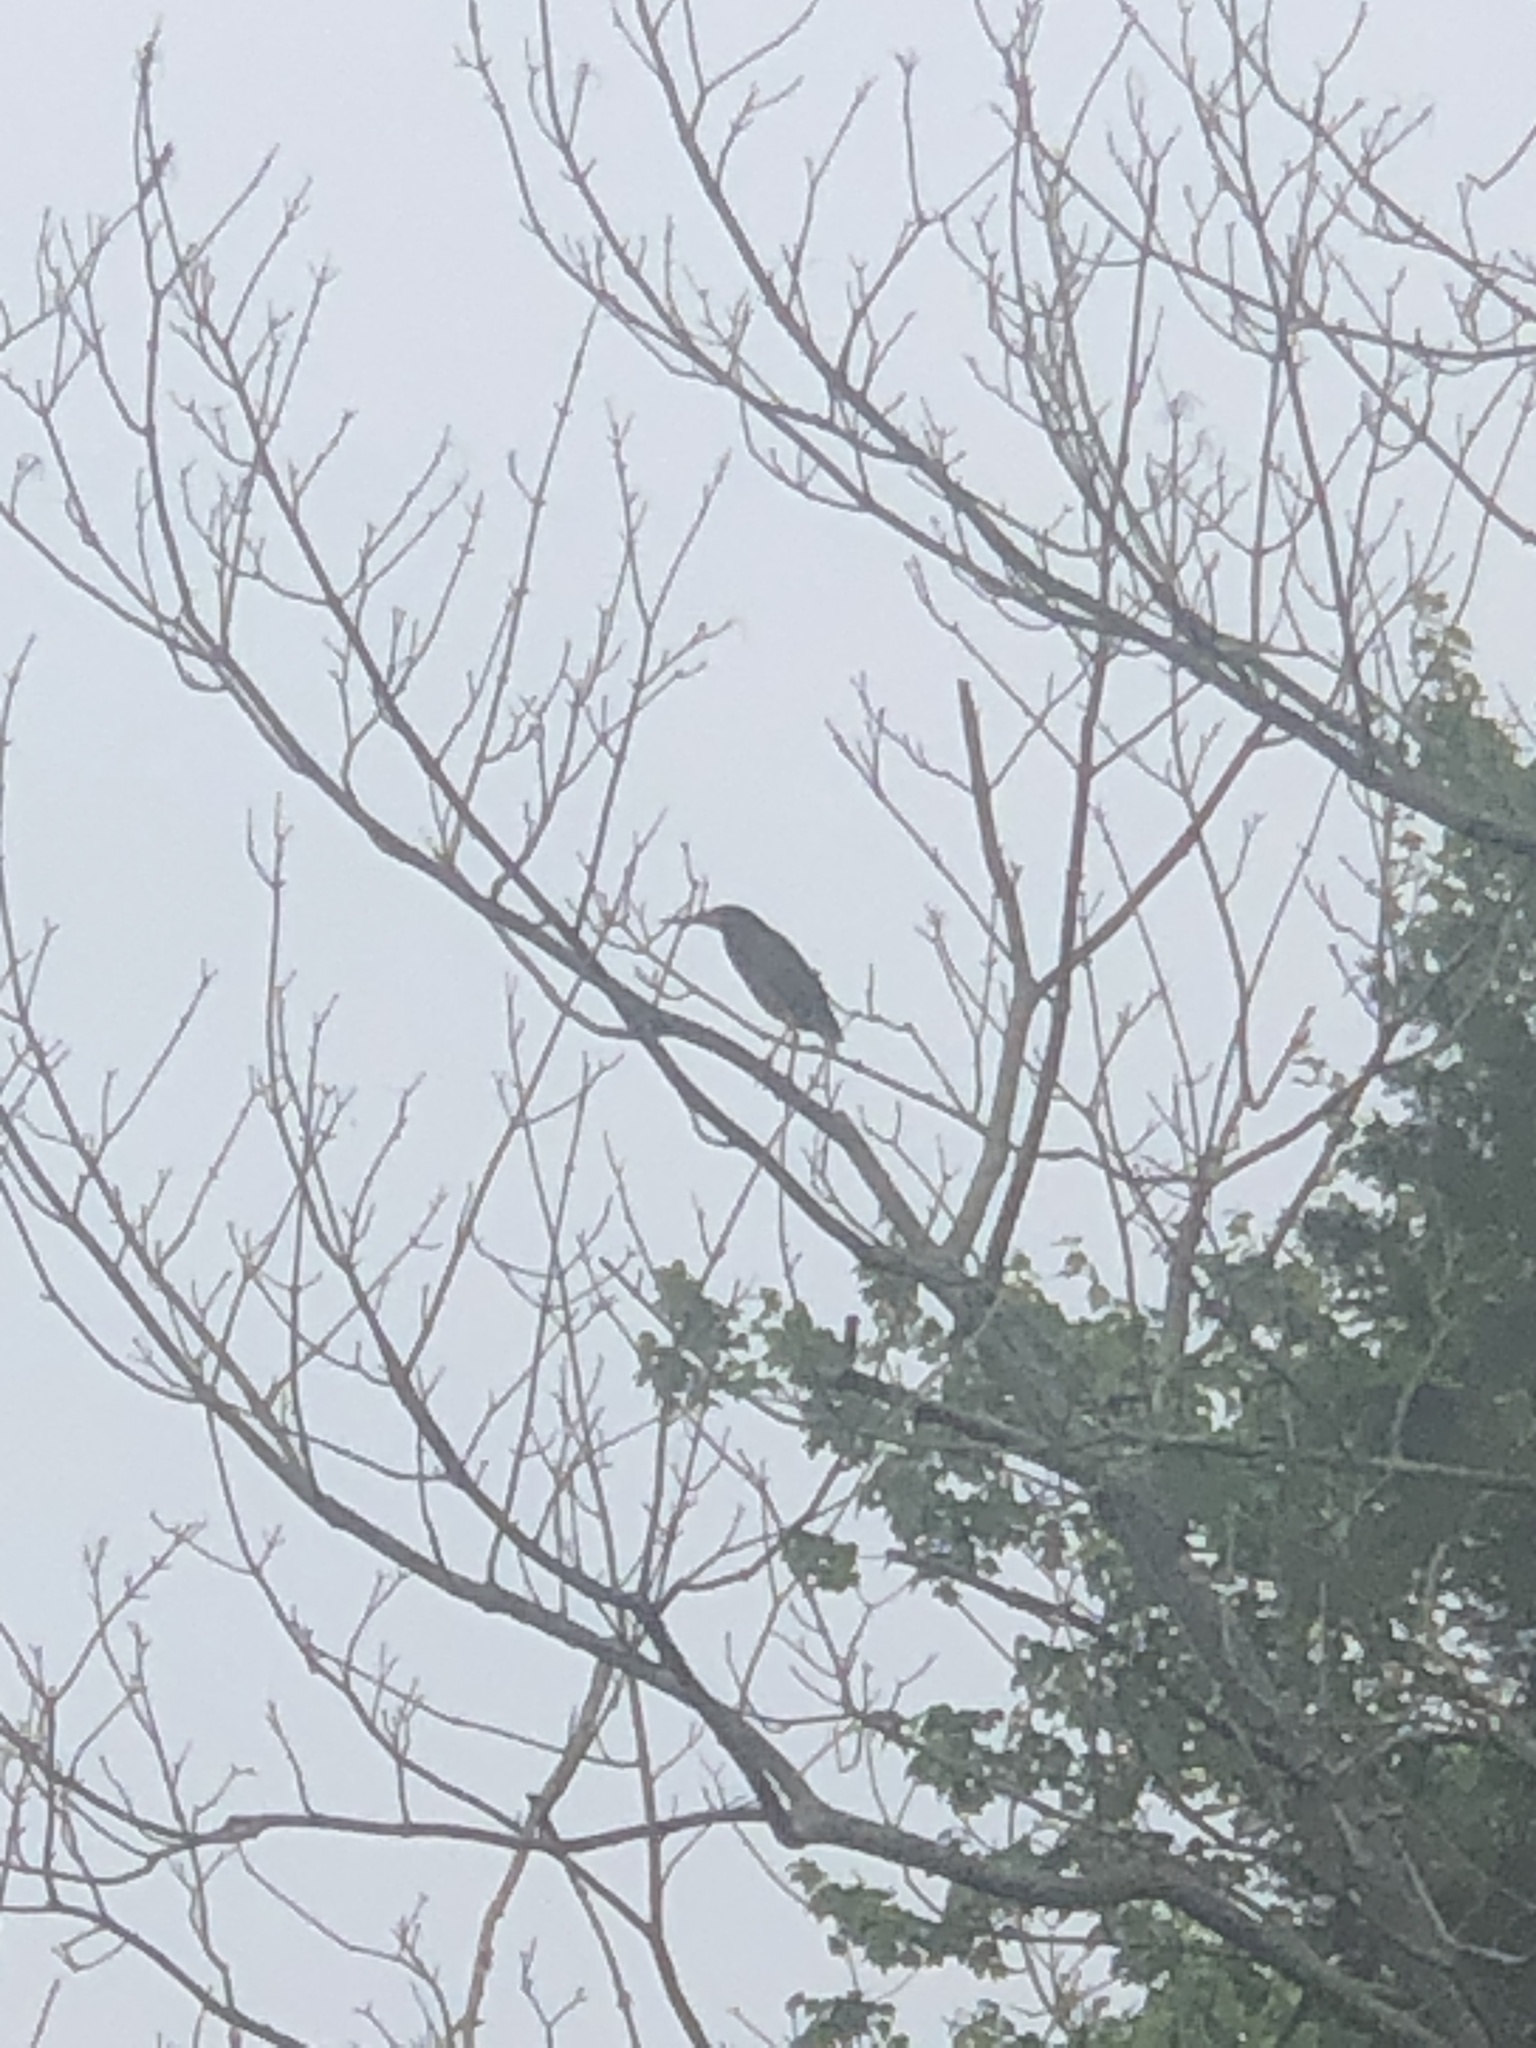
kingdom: Animalia
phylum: Chordata
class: Aves
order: Pelecaniformes
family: Ardeidae
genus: Butorides
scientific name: Butorides virescens
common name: Green heron
